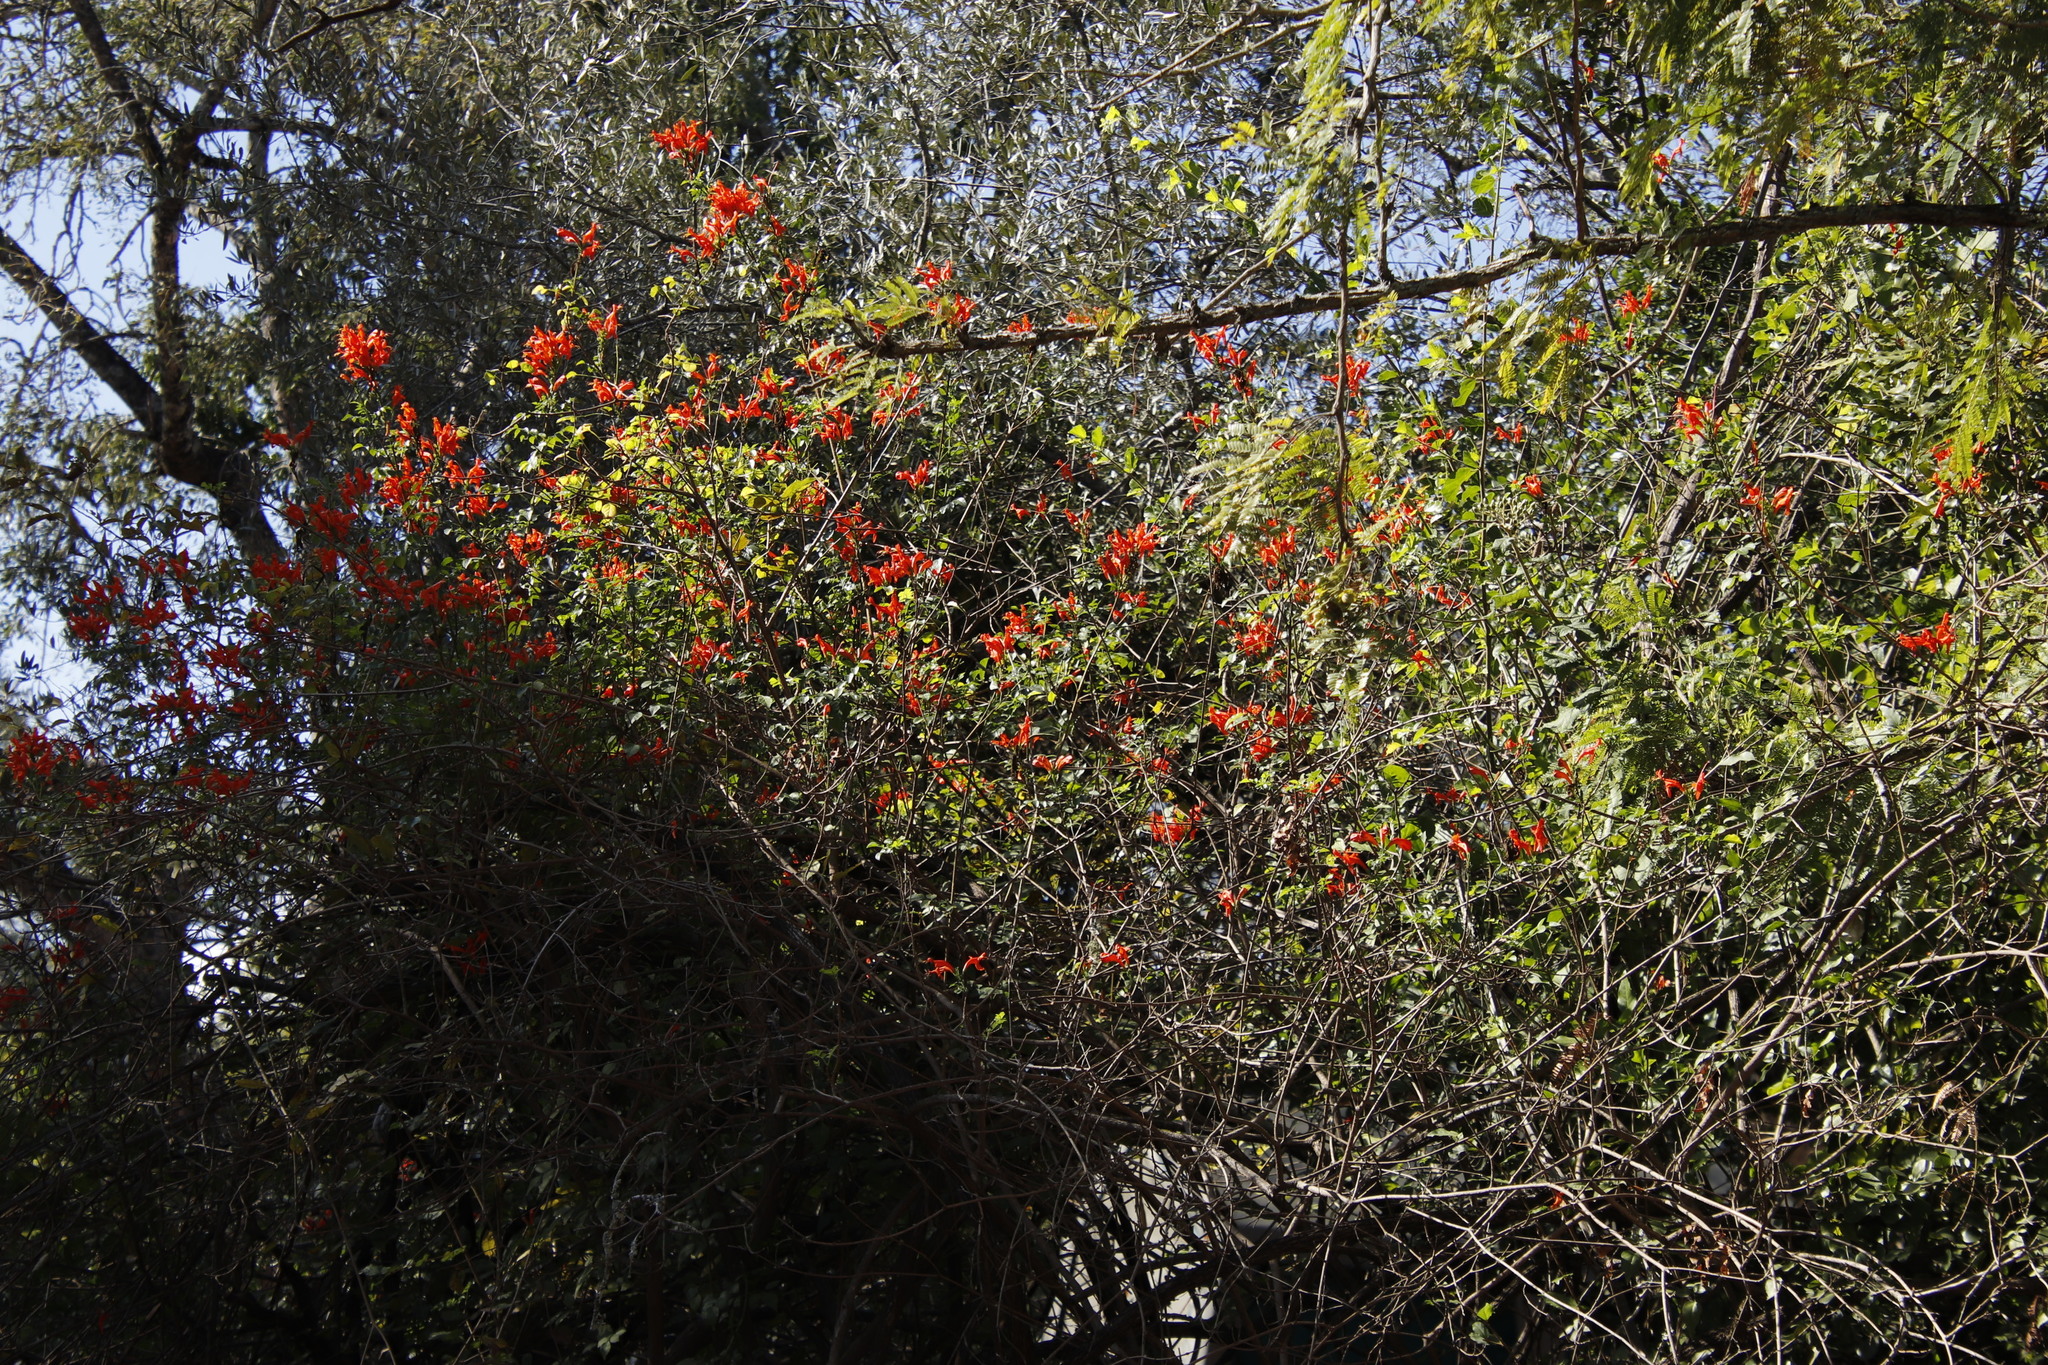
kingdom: Plantae
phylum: Tracheophyta
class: Magnoliopsida
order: Lamiales
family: Bignoniaceae
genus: Tecomaria
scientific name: Tecomaria capensis
